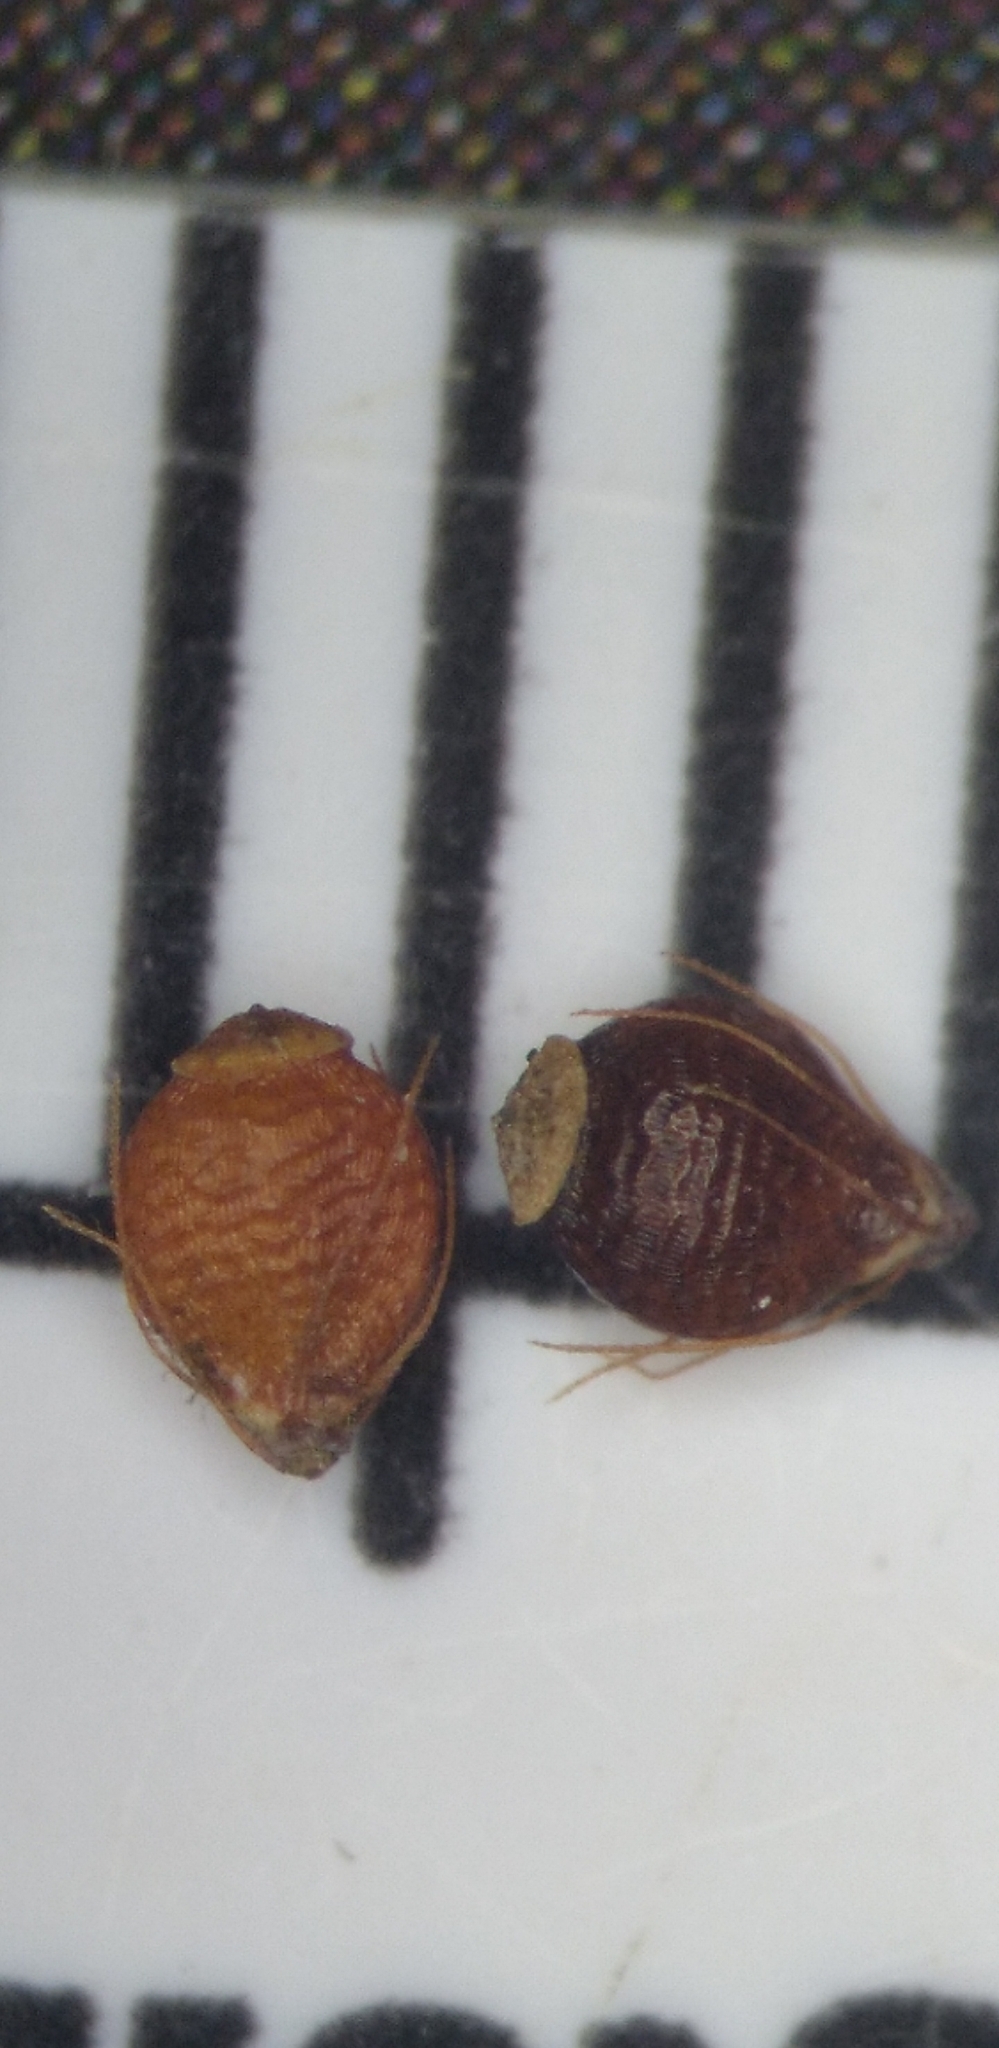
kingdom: Plantae
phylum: Tracheophyta
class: Liliopsida
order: Poales
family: Cyperaceae
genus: Rhynchospora
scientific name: Rhynchospora globularis
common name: Globe beaksedge
